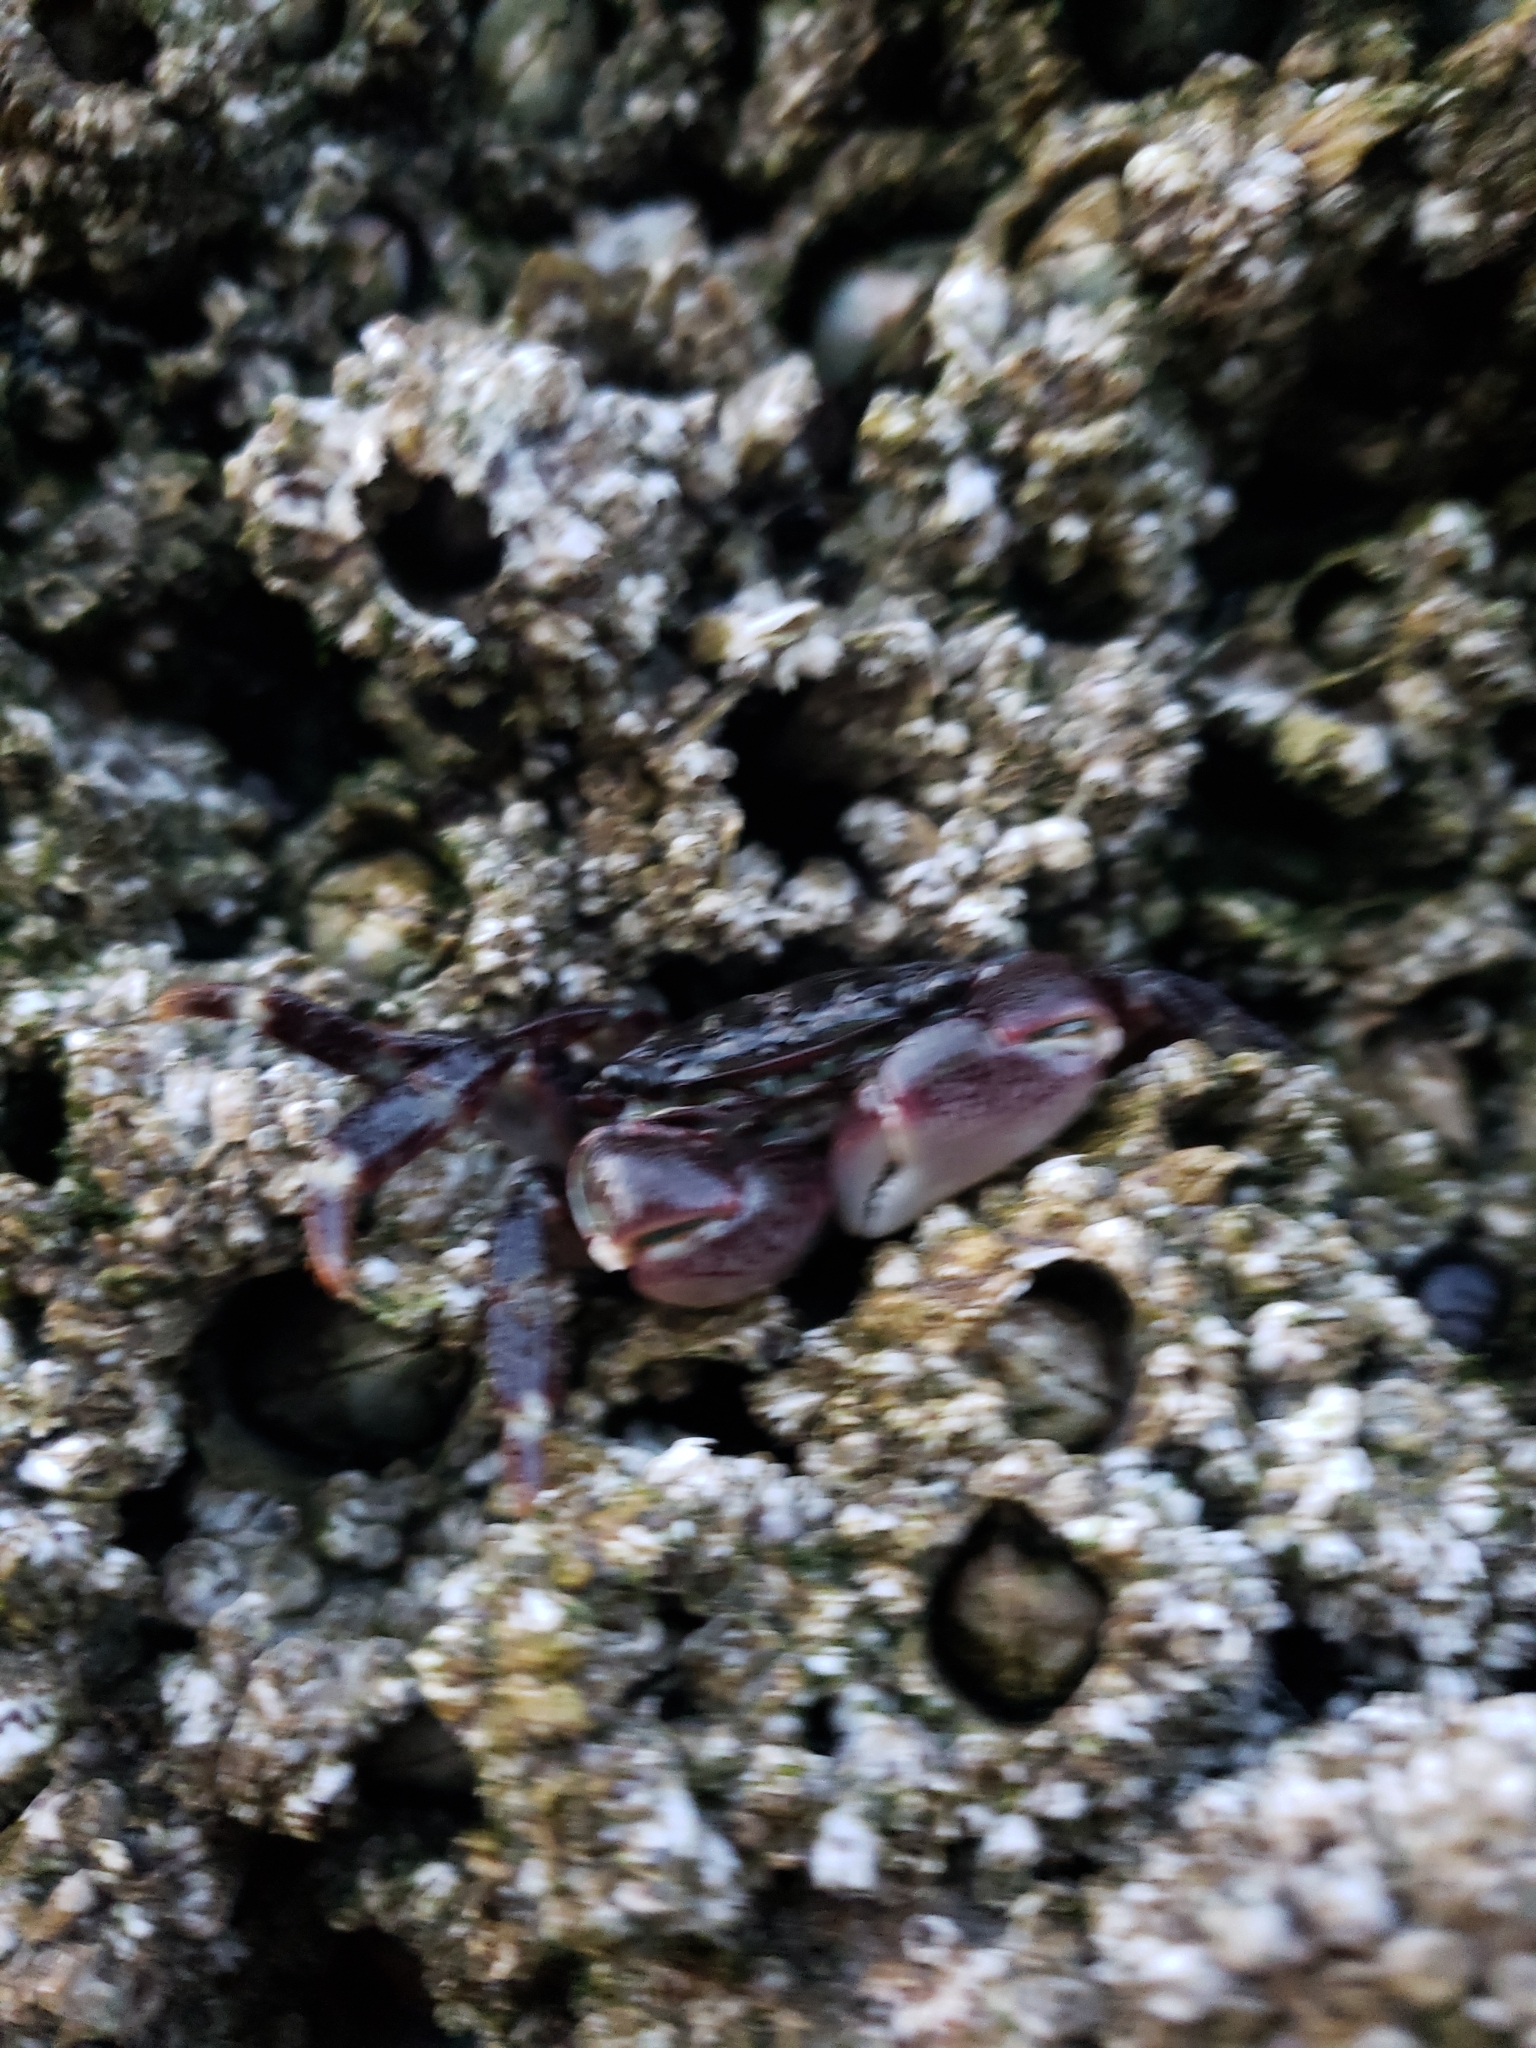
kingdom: Animalia
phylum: Arthropoda
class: Malacostraca
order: Decapoda
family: Grapsidae
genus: Pachygrapsus
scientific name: Pachygrapsus crassipes
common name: Striped shore crab
